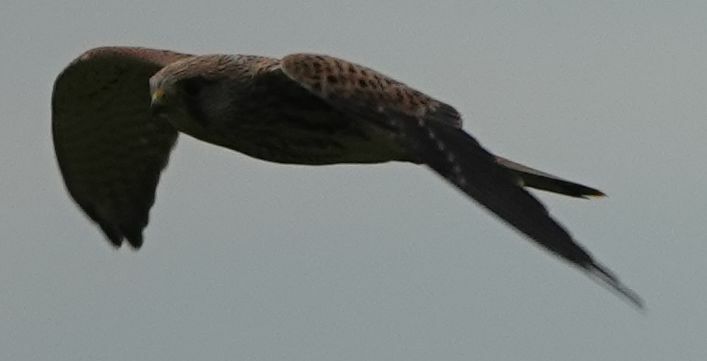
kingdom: Animalia
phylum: Chordata
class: Aves
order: Falconiformes
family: Falconidae
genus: Falco
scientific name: Falco tinnunculus
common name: Common kestrel
